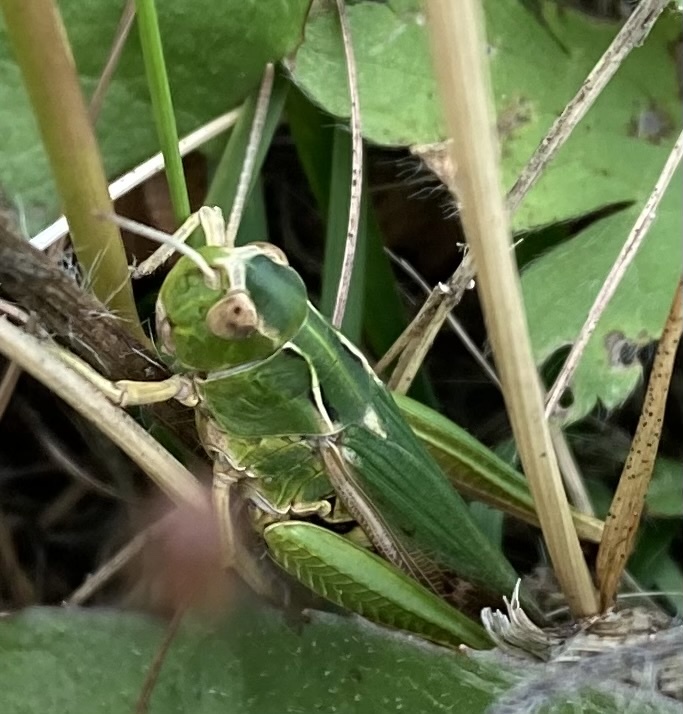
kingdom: Animalia
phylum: Arthropoda
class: Insecta
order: Orthoptera
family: Acrididae
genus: Omocestus
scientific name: Omocestus viridulus
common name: Common green grasshopper
